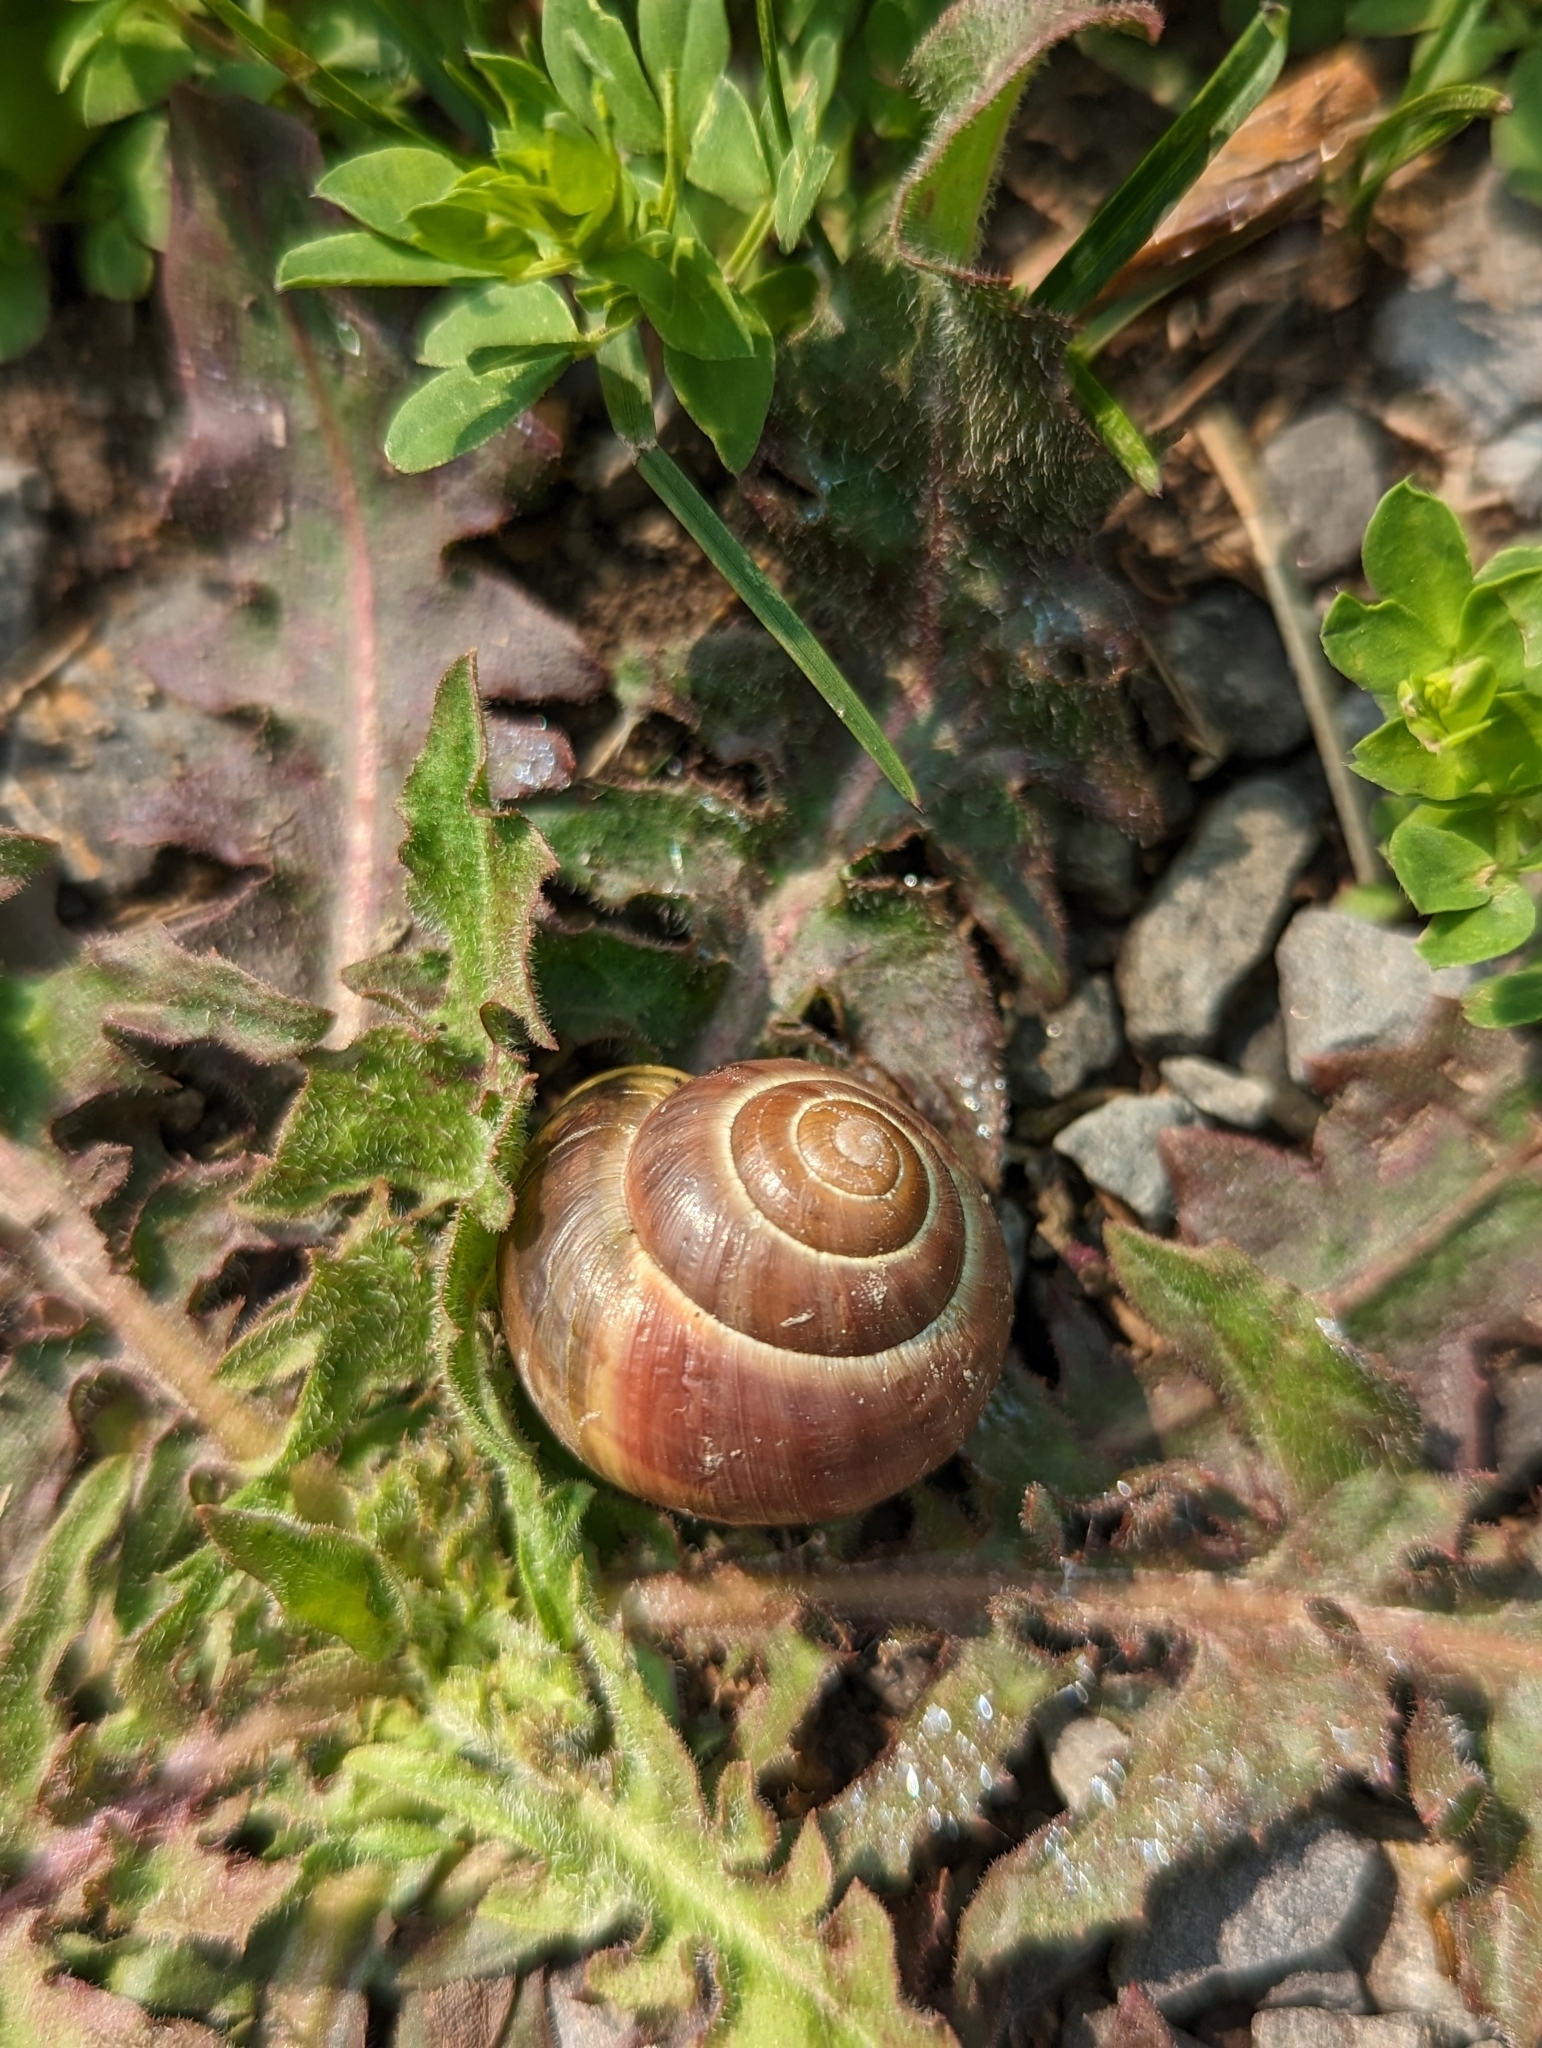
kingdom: Animalia
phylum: Mollusca
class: Gastropoda
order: Stylommatophora
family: Helicidae
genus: Cepaea
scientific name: Cepaea nemoralis
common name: Grovesnail
